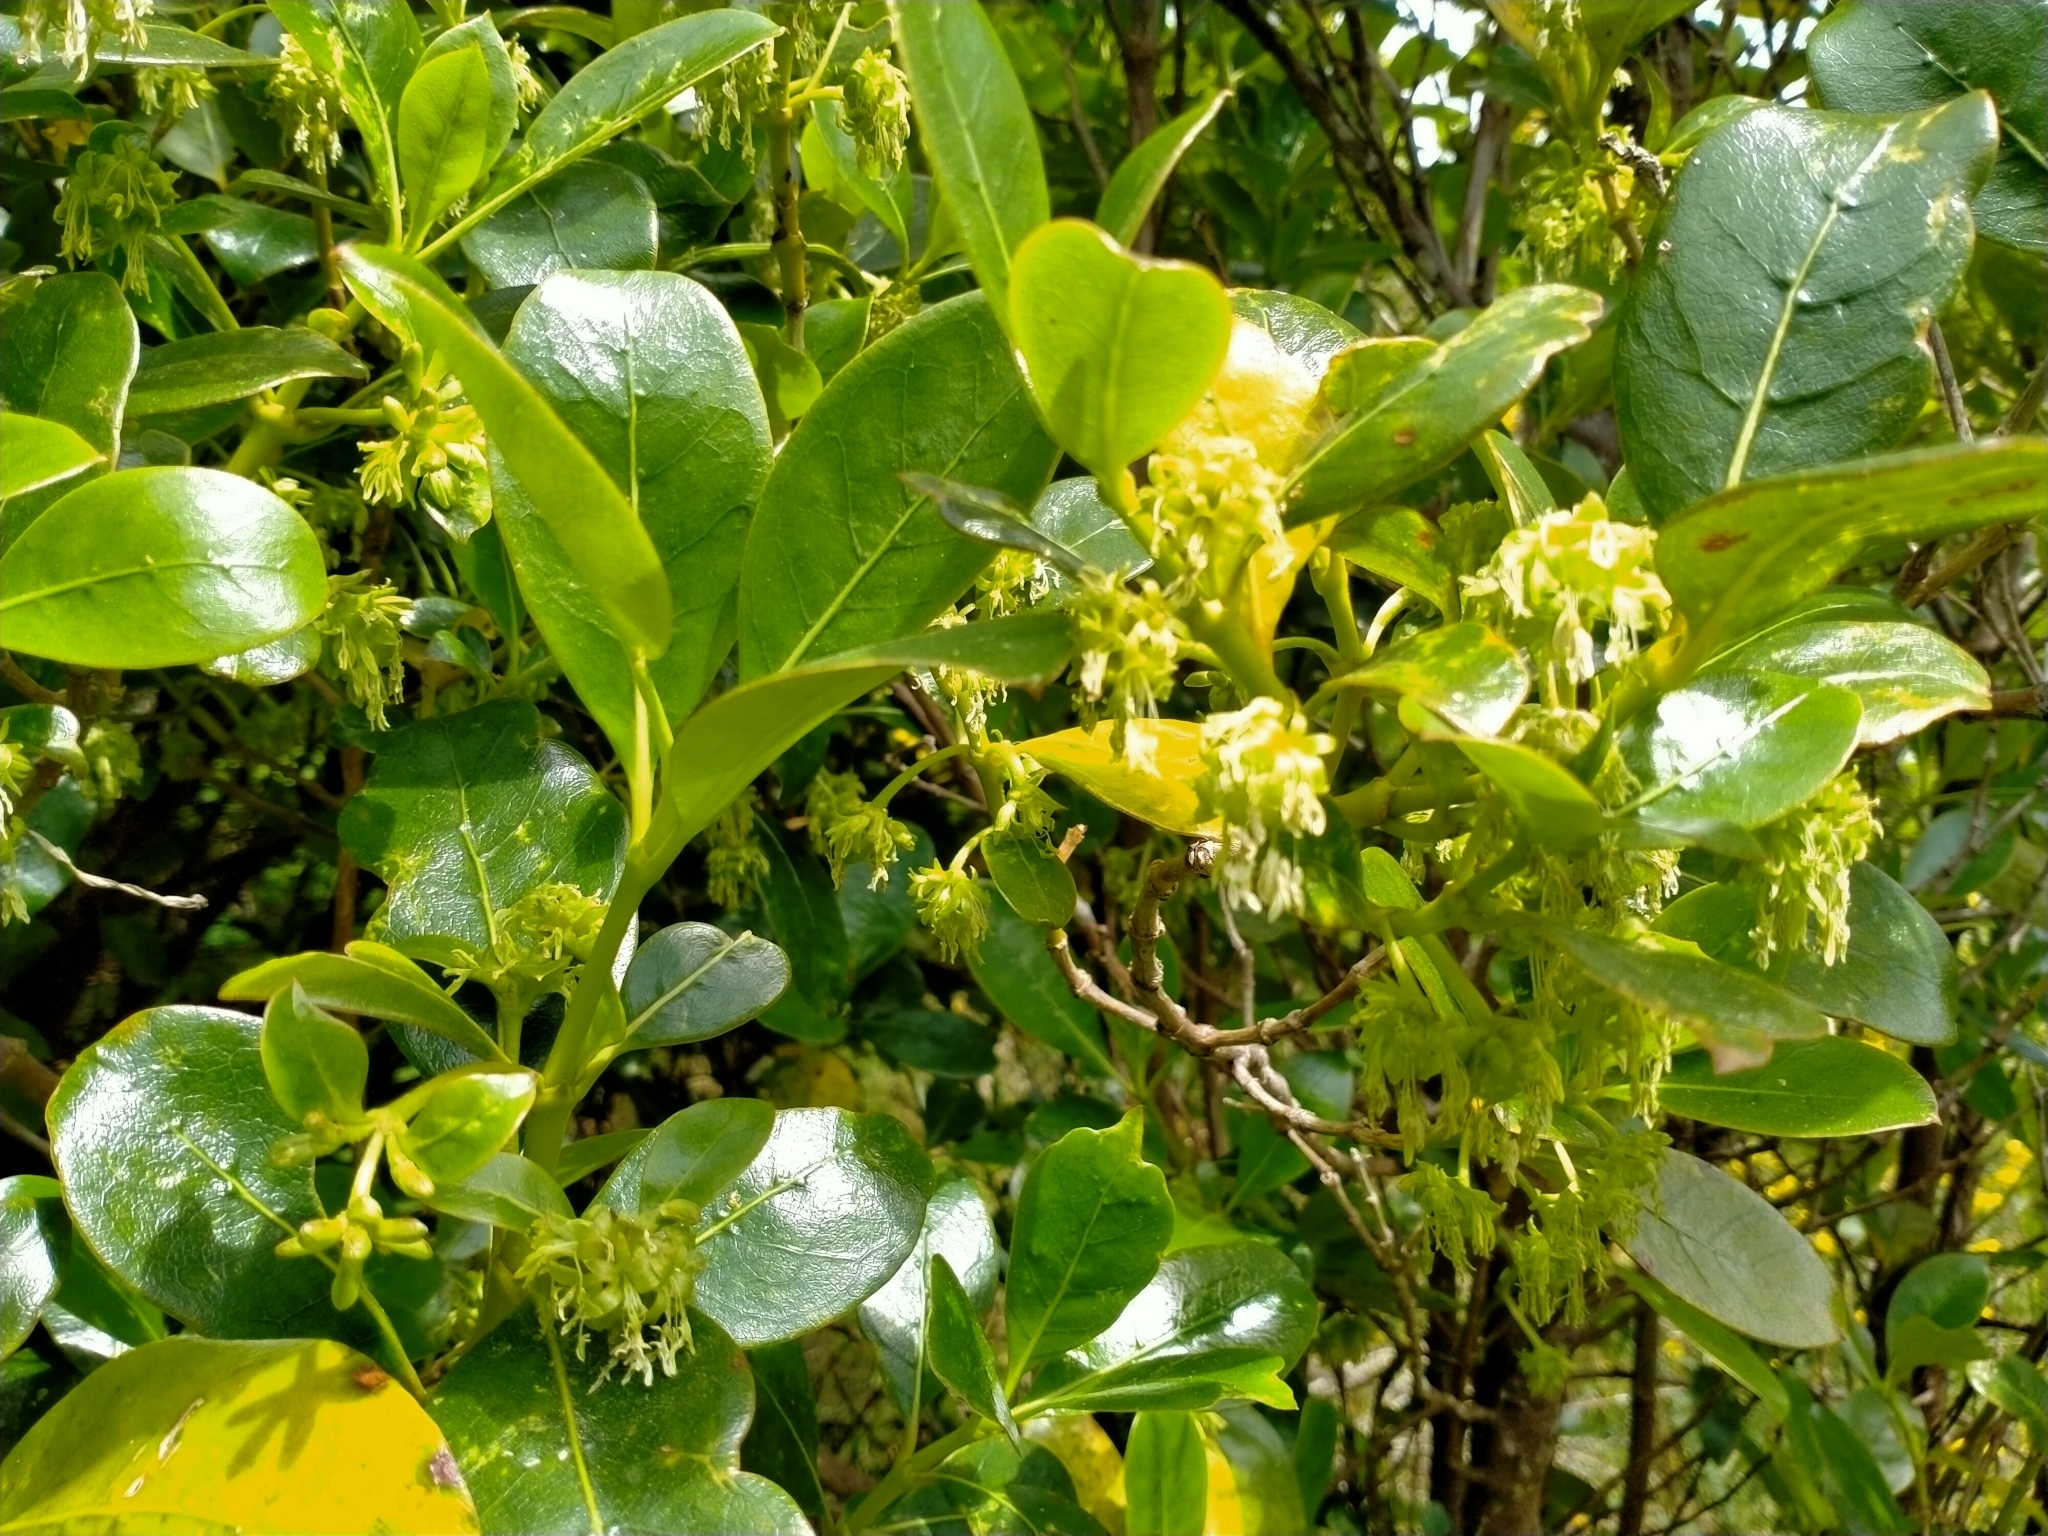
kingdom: Plantae
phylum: Tracheophyta
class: Magnoliopsida
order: Gentianales
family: Rubiaceae
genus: Coprosma
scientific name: Coprosma lucida
